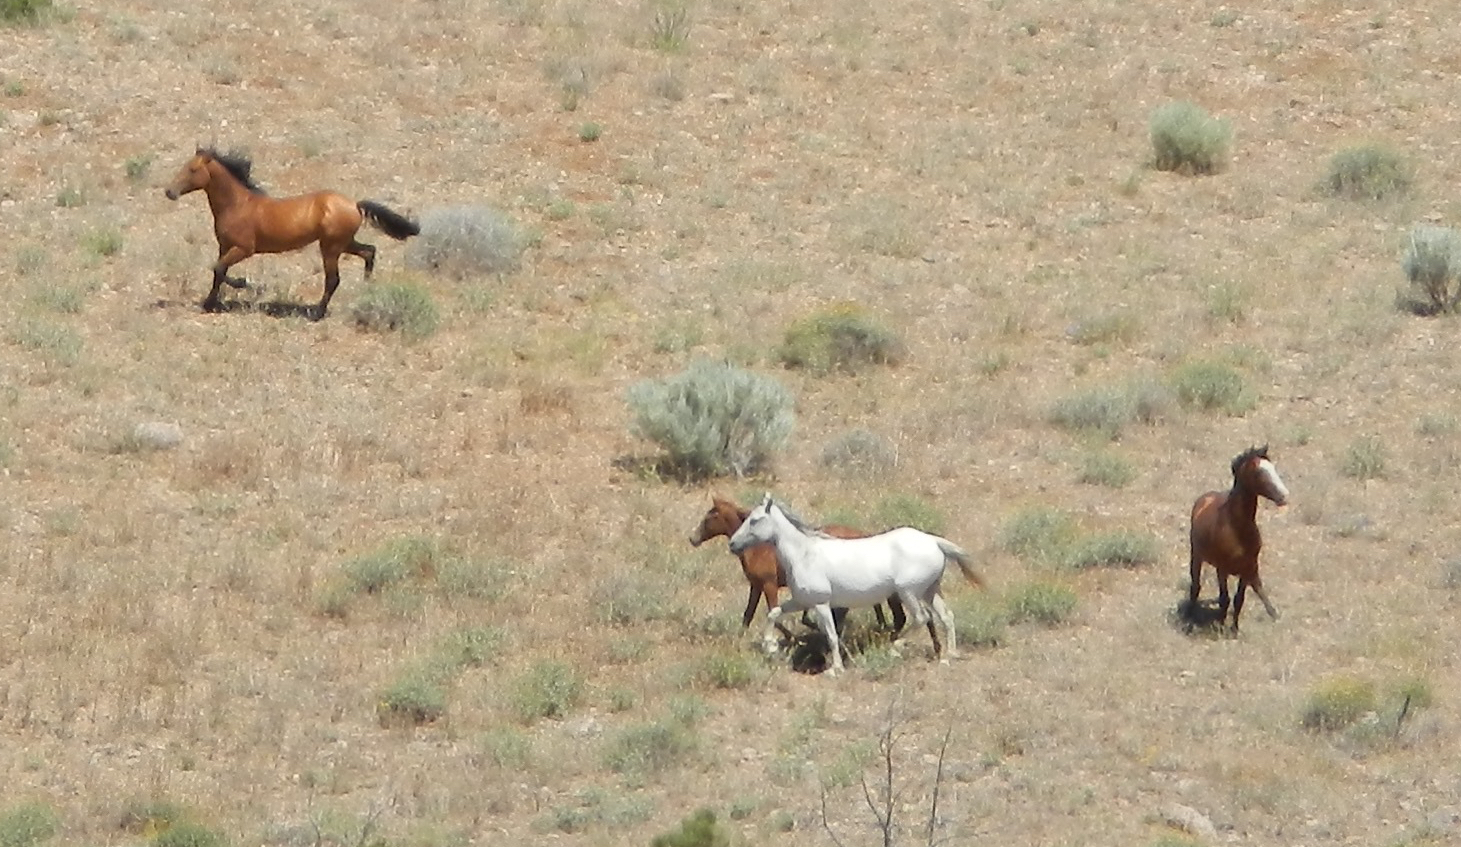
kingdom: Animalia
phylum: Chordata
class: Mammalia
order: Perissodactyla
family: Equidae
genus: Equus
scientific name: Equus caballus
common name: Horse
